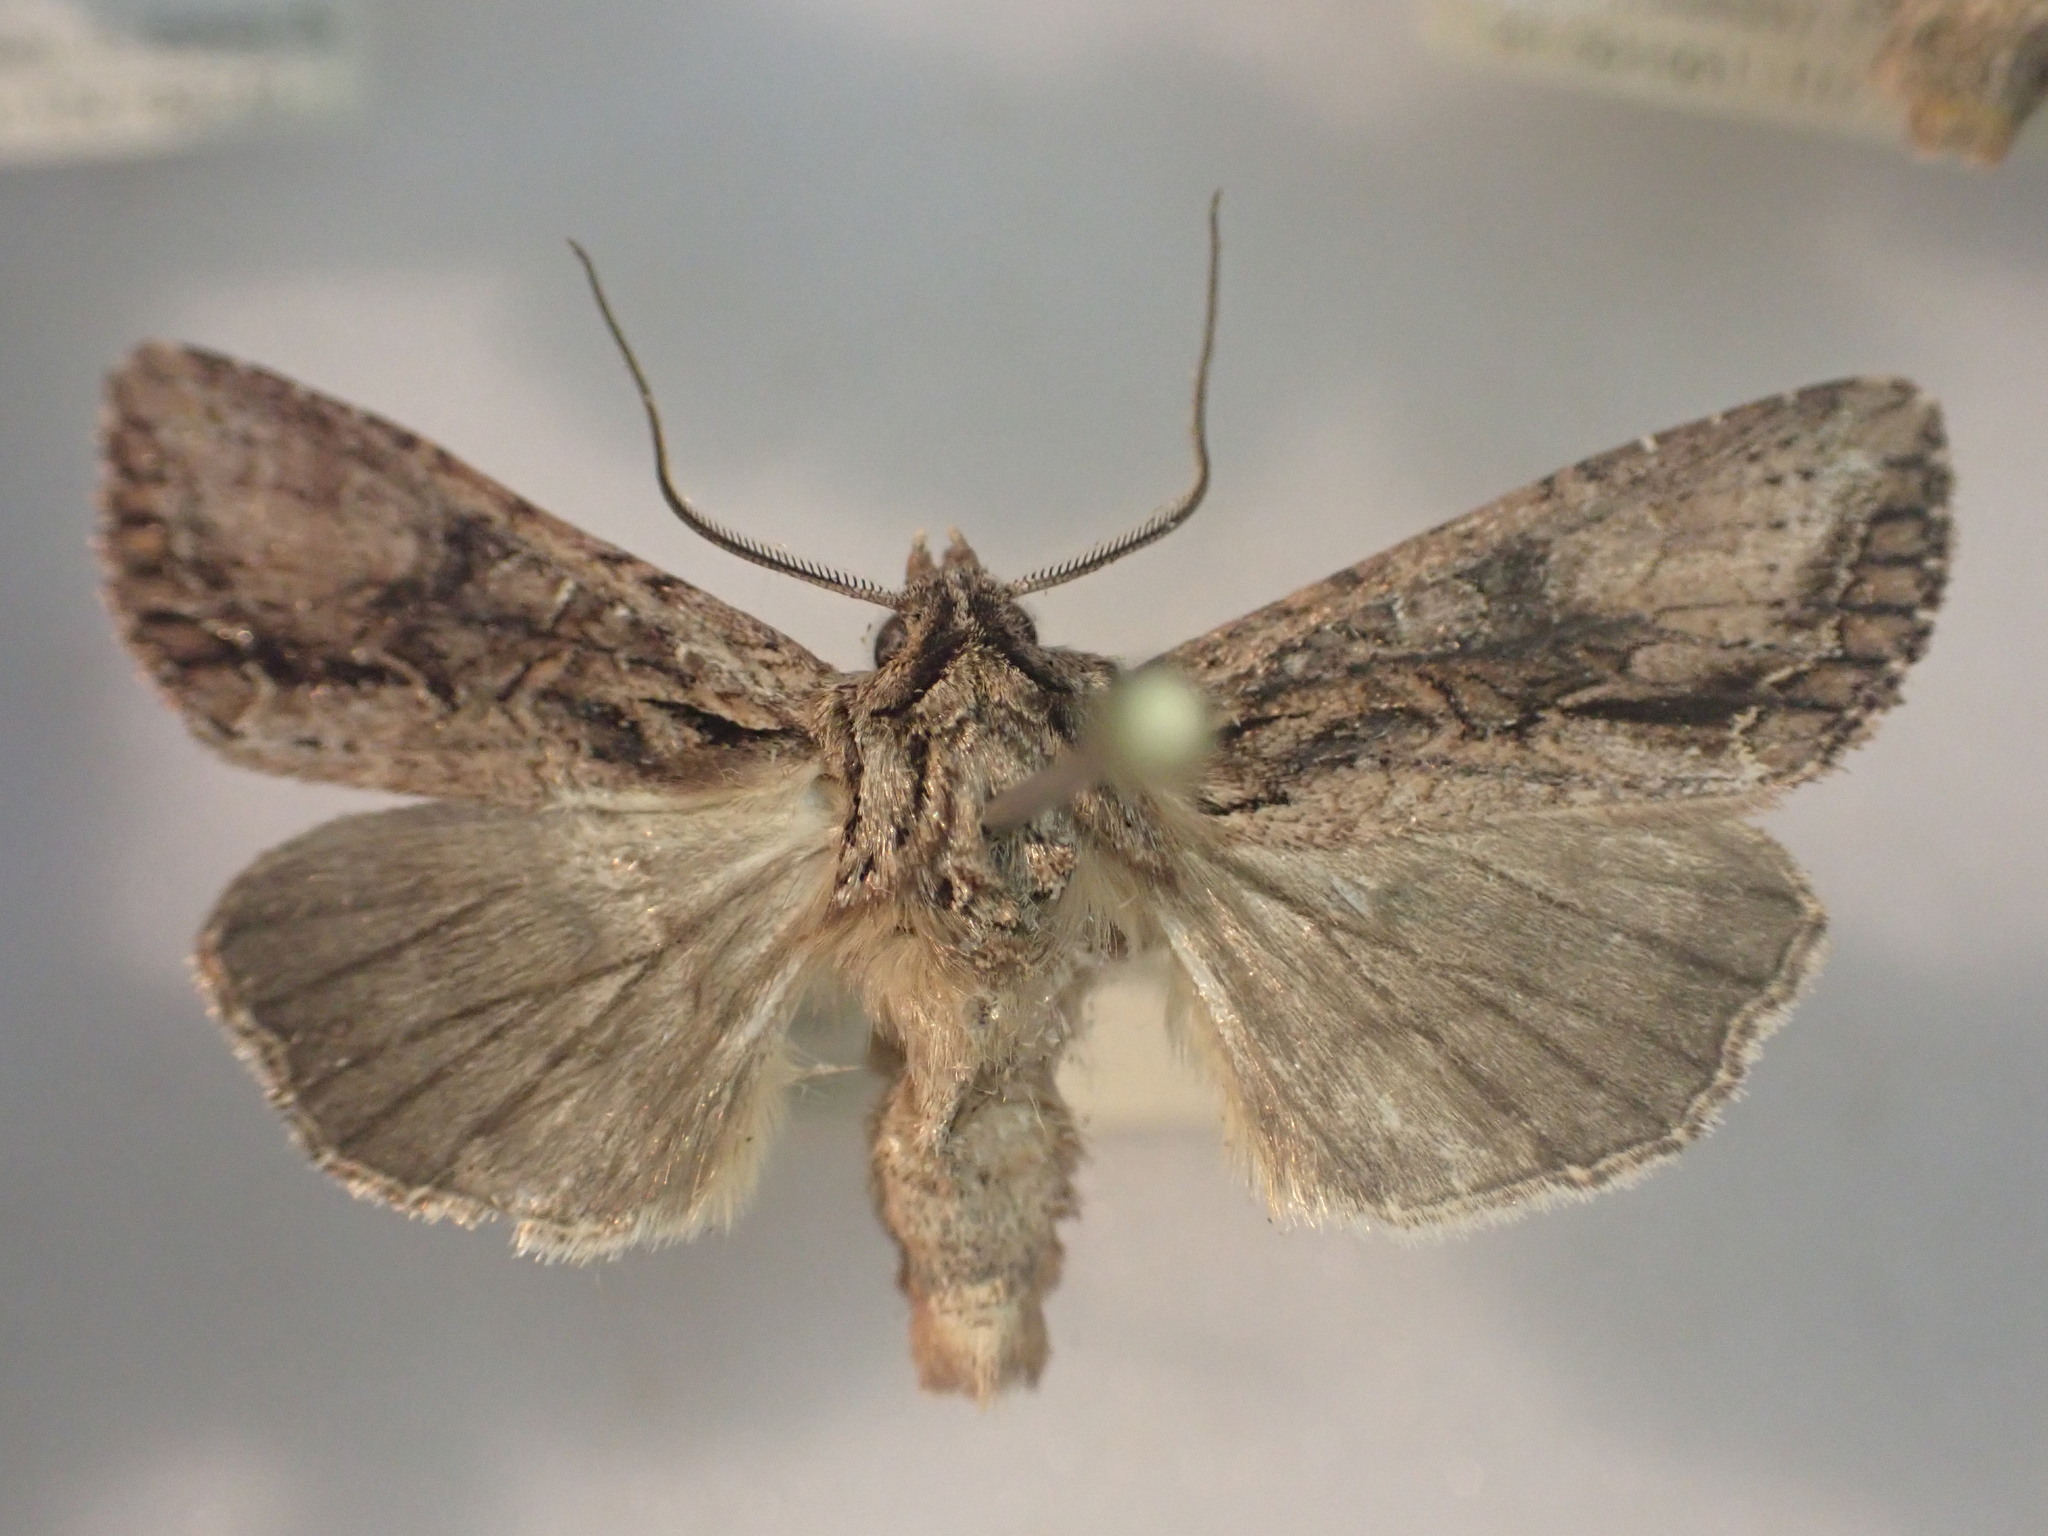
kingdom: Animalia
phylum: Arthropoda
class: Insecta
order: Lepidoptera
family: Noctuidae
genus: Ichneutica
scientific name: Ichneutica mutans
